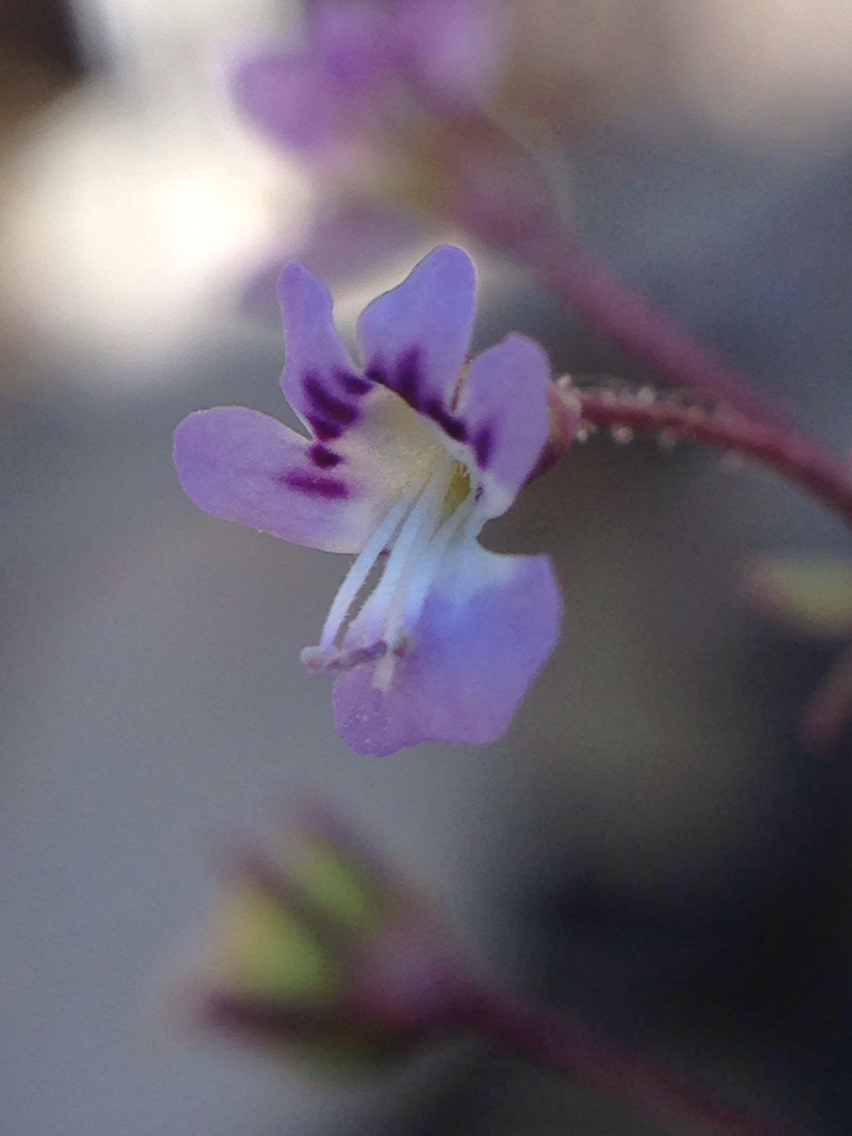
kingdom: Plantae
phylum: Tracheophyta
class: Magnoliopsida
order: Lamiales
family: Plantaginaceae
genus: Tonella
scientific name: Tonella tenella
